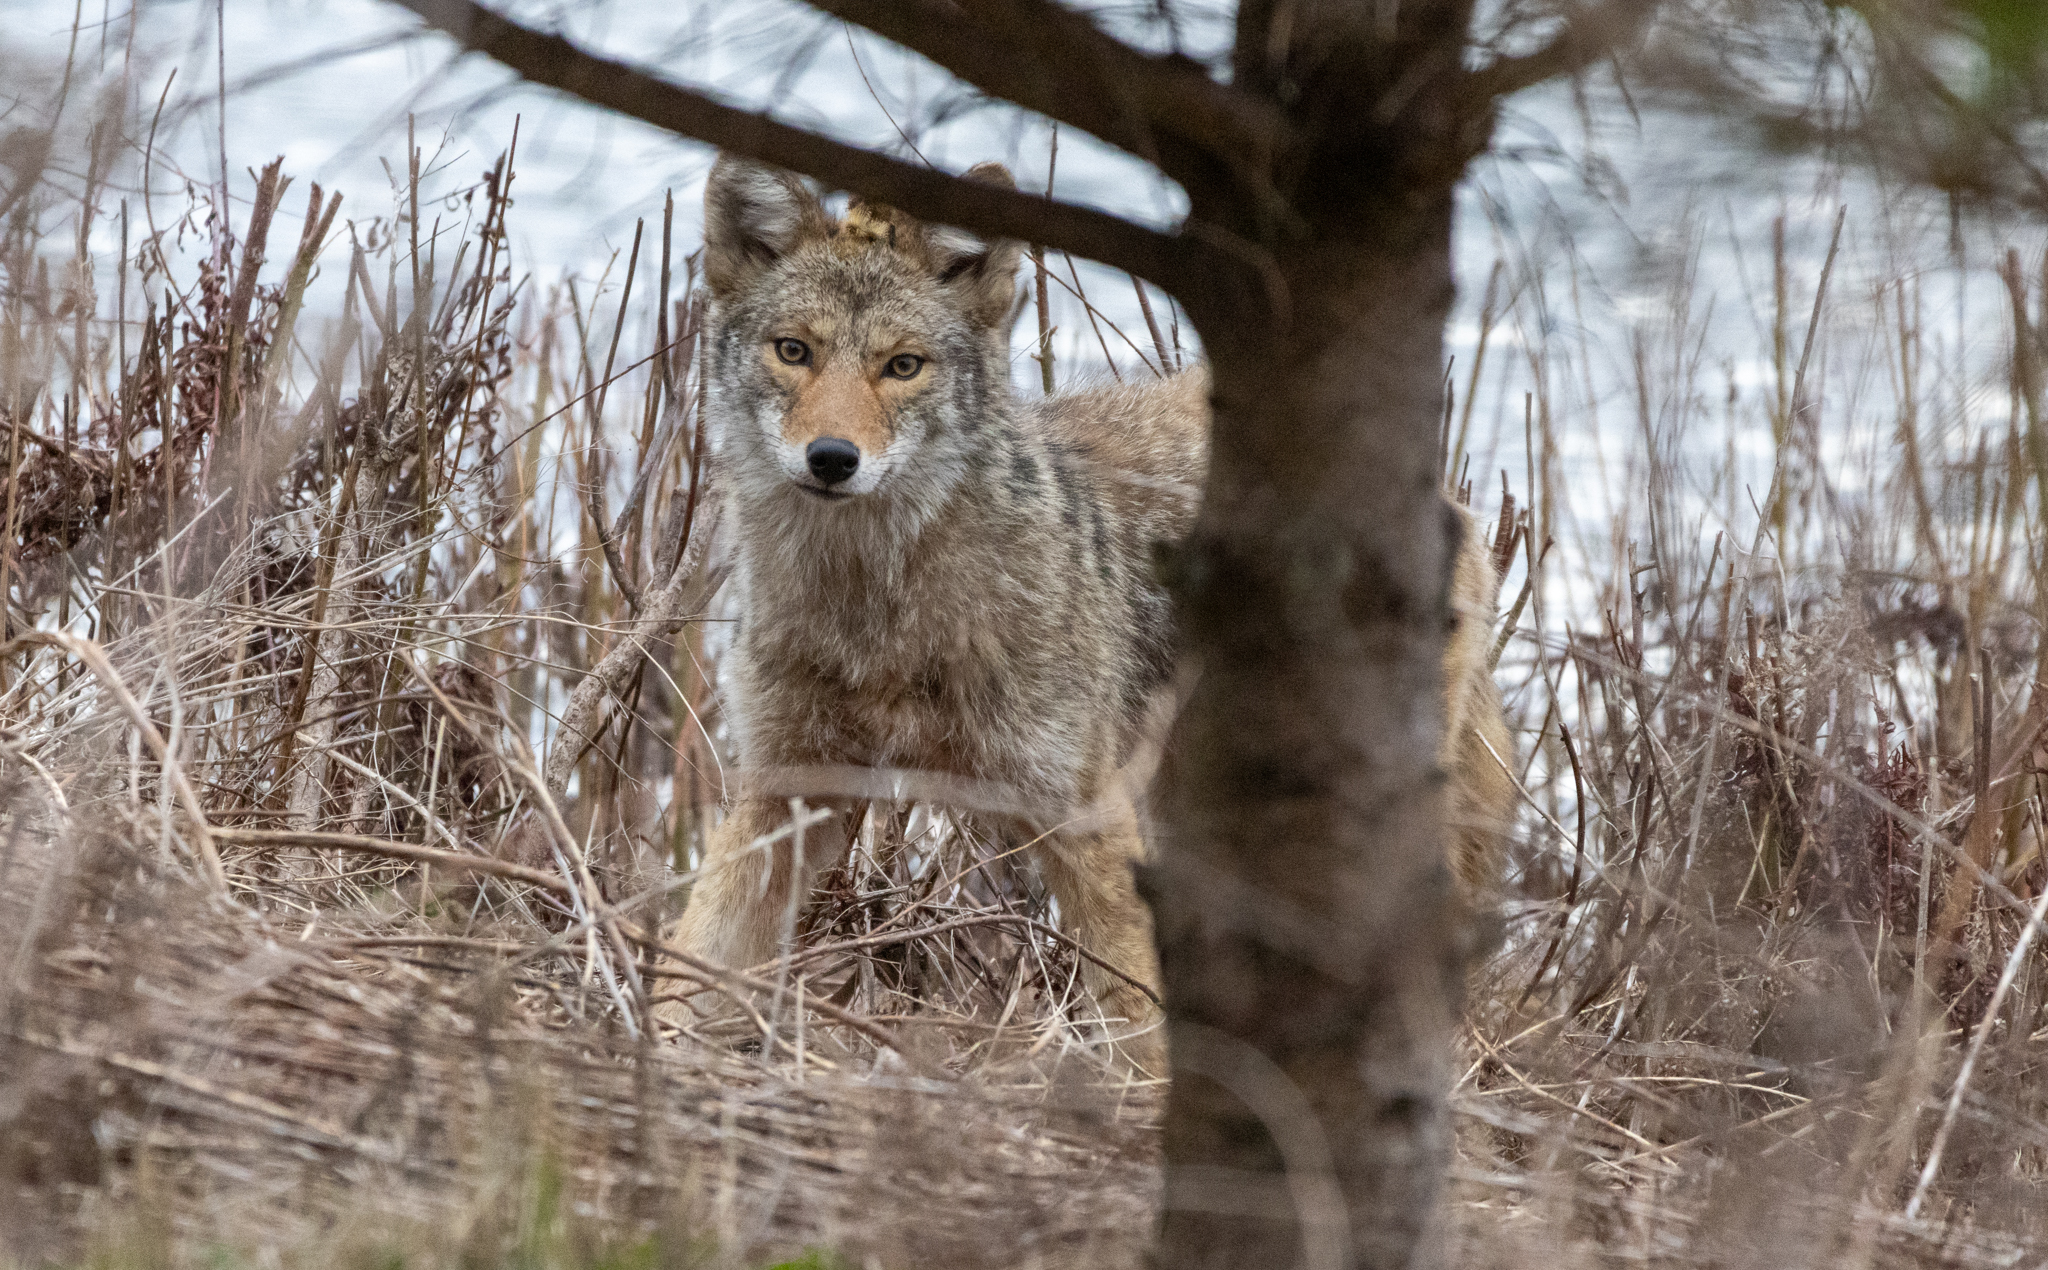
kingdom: Animalia
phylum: Chordata
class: Mammalia
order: Carnivora
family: Canidae
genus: Canis
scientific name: Canis latrans
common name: Coyote
